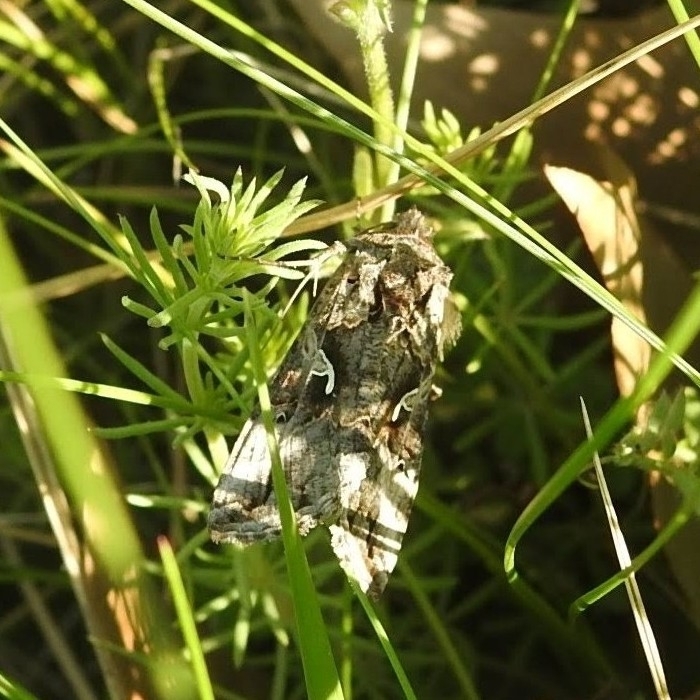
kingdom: Animalia
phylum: Arthropoda
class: Insecta
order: Lepidoptera
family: Noctuidae
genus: Autographa
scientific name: Autographa gamma
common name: Silver y
